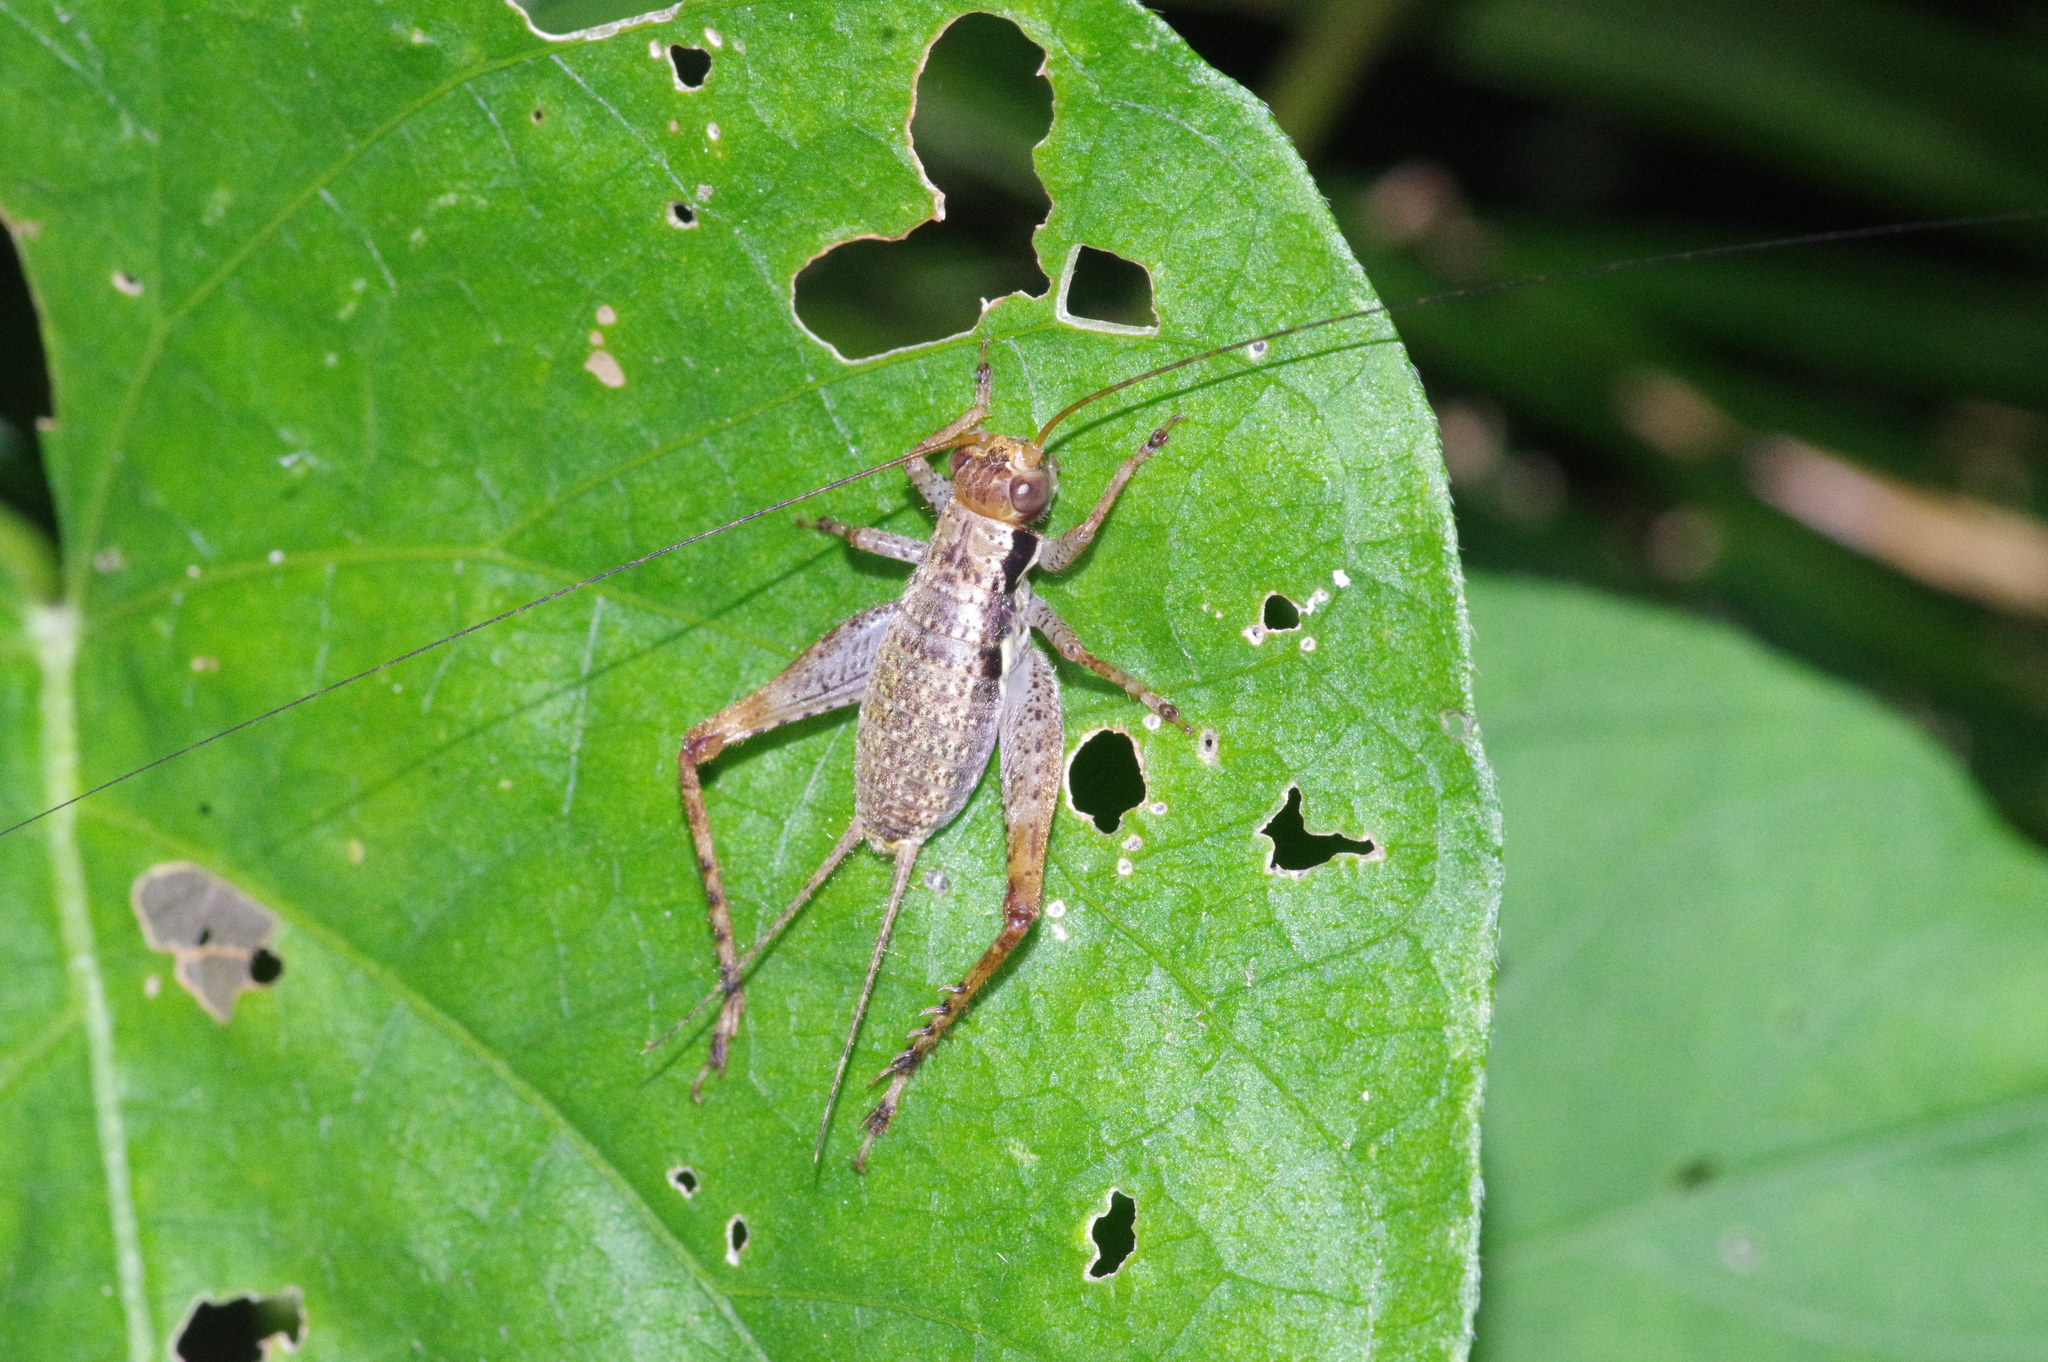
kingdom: Animalia
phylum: Arthropoda
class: Insecta
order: Orthoptera
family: Gryllidae
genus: Cardiodactylus
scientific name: Cardiodactylus guttulus
